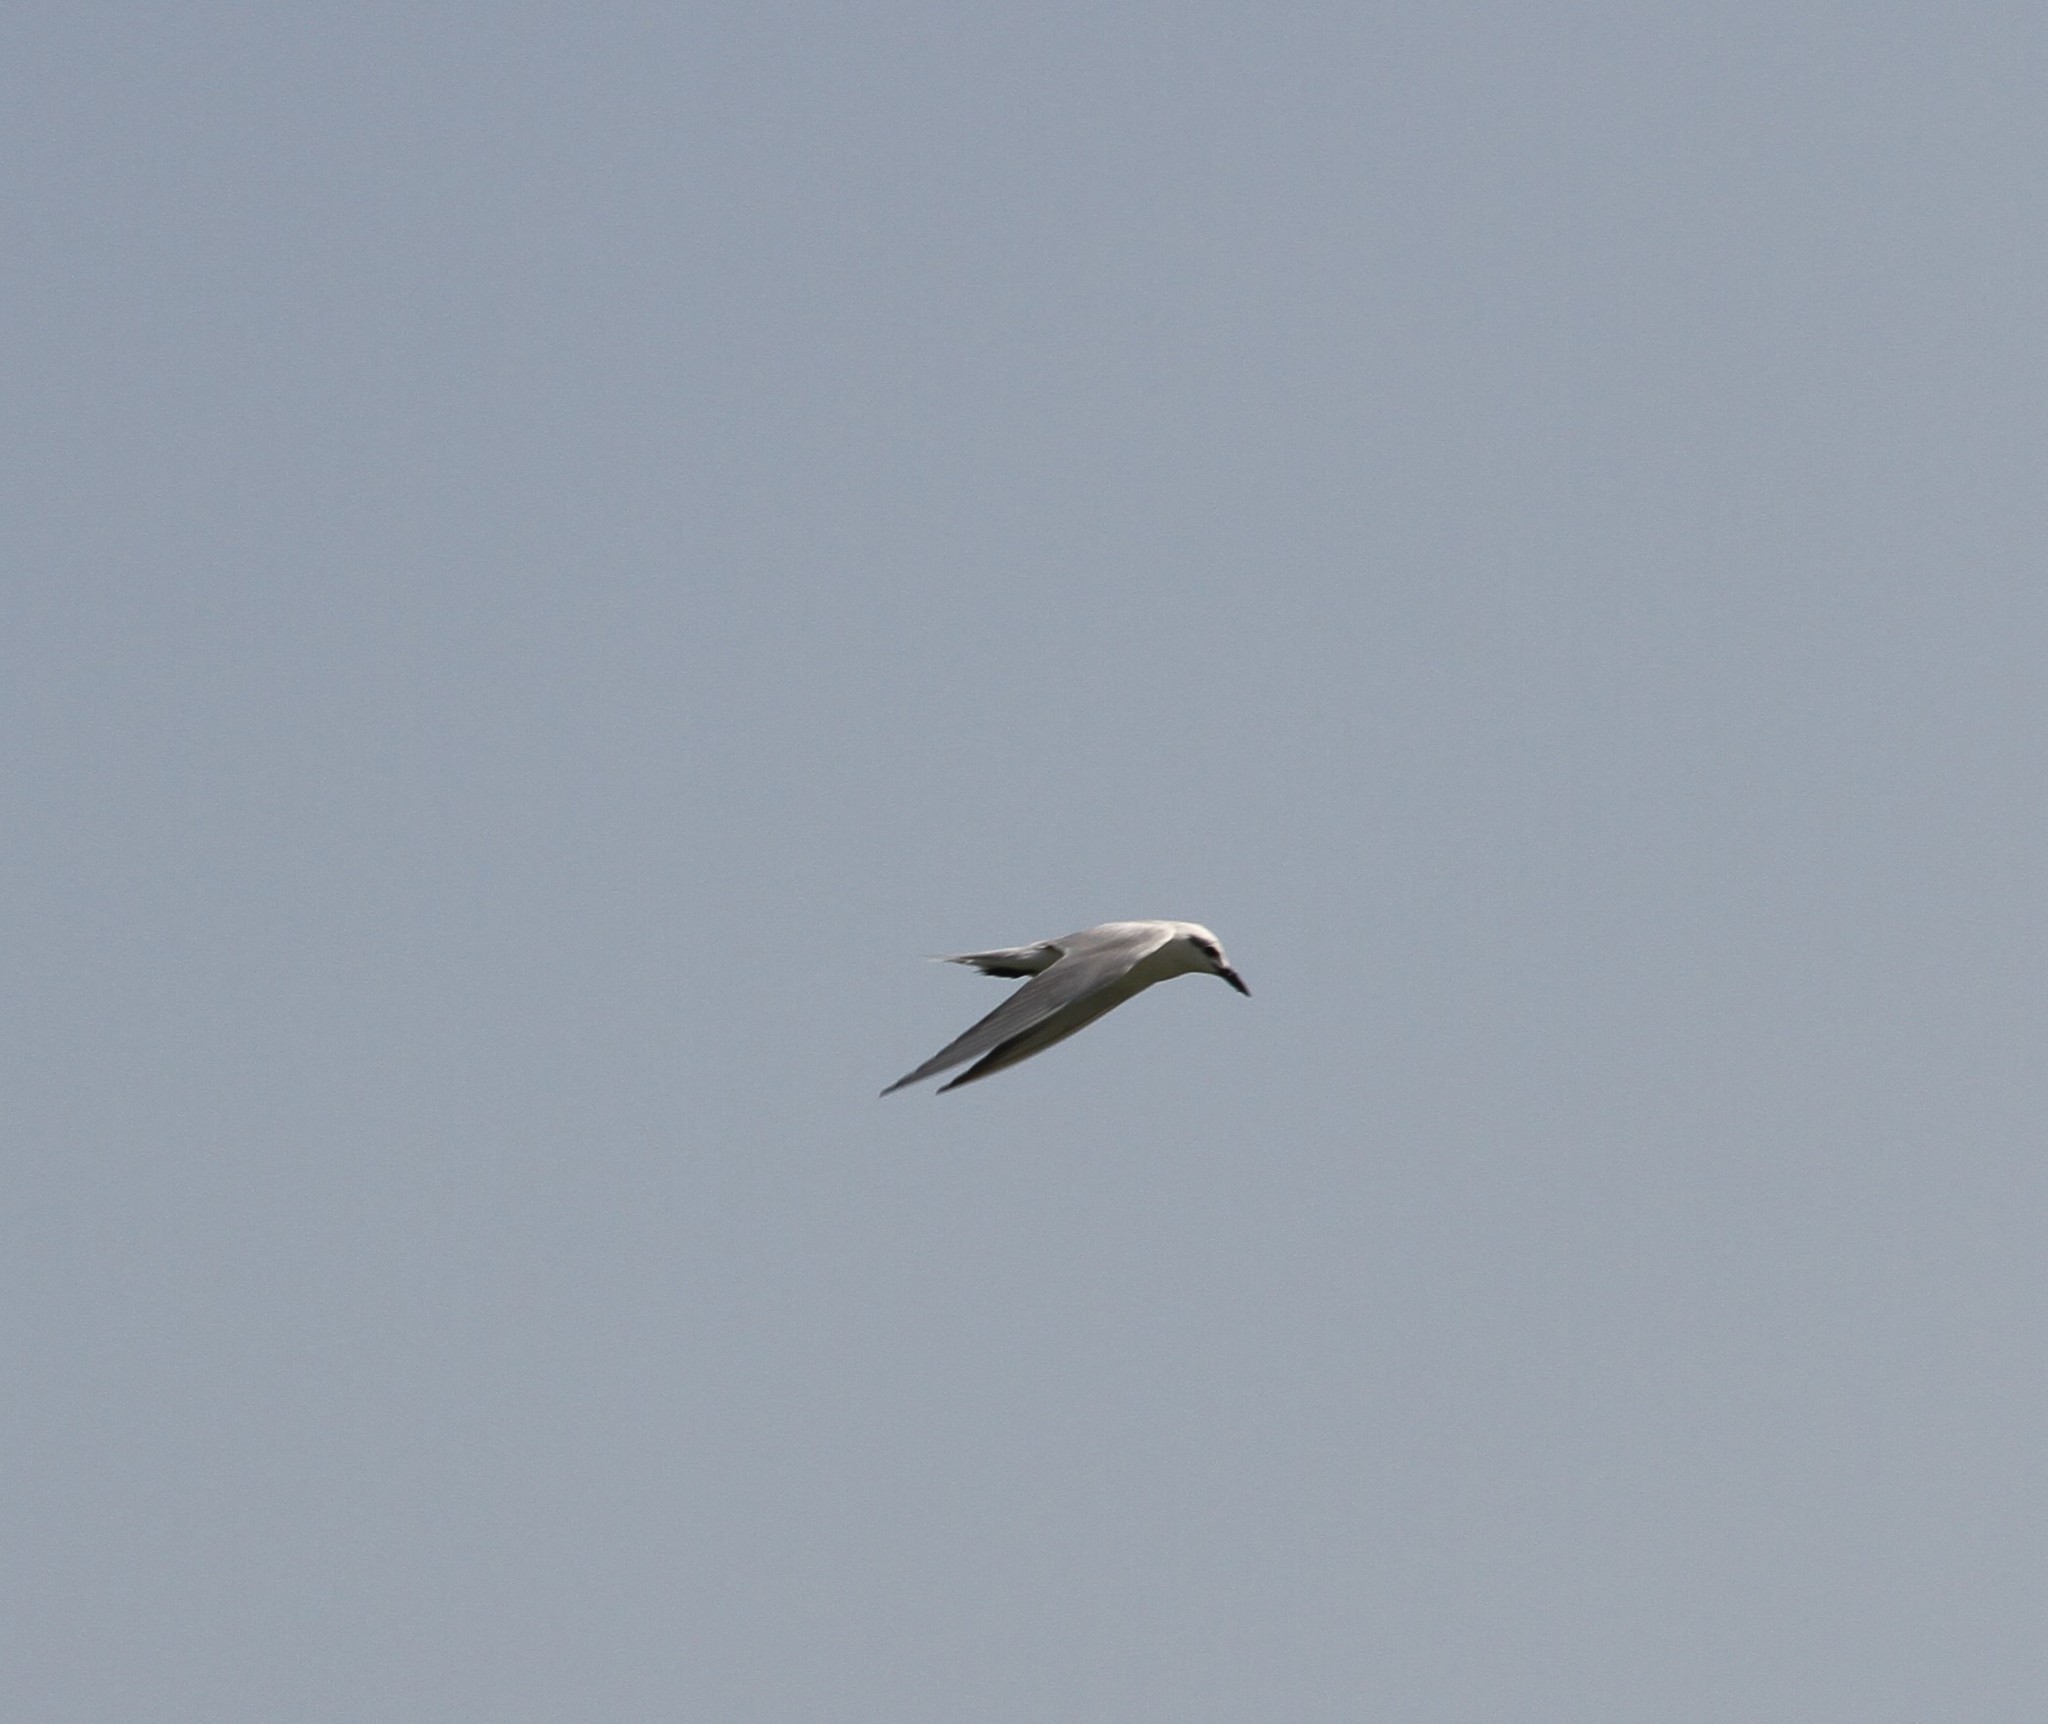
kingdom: Animalia
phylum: Chordata
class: Aves
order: Charadriiformes
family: Laridae
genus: Gelochelidon
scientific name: Gelochelidon nilotica
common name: Gull-billed tern
